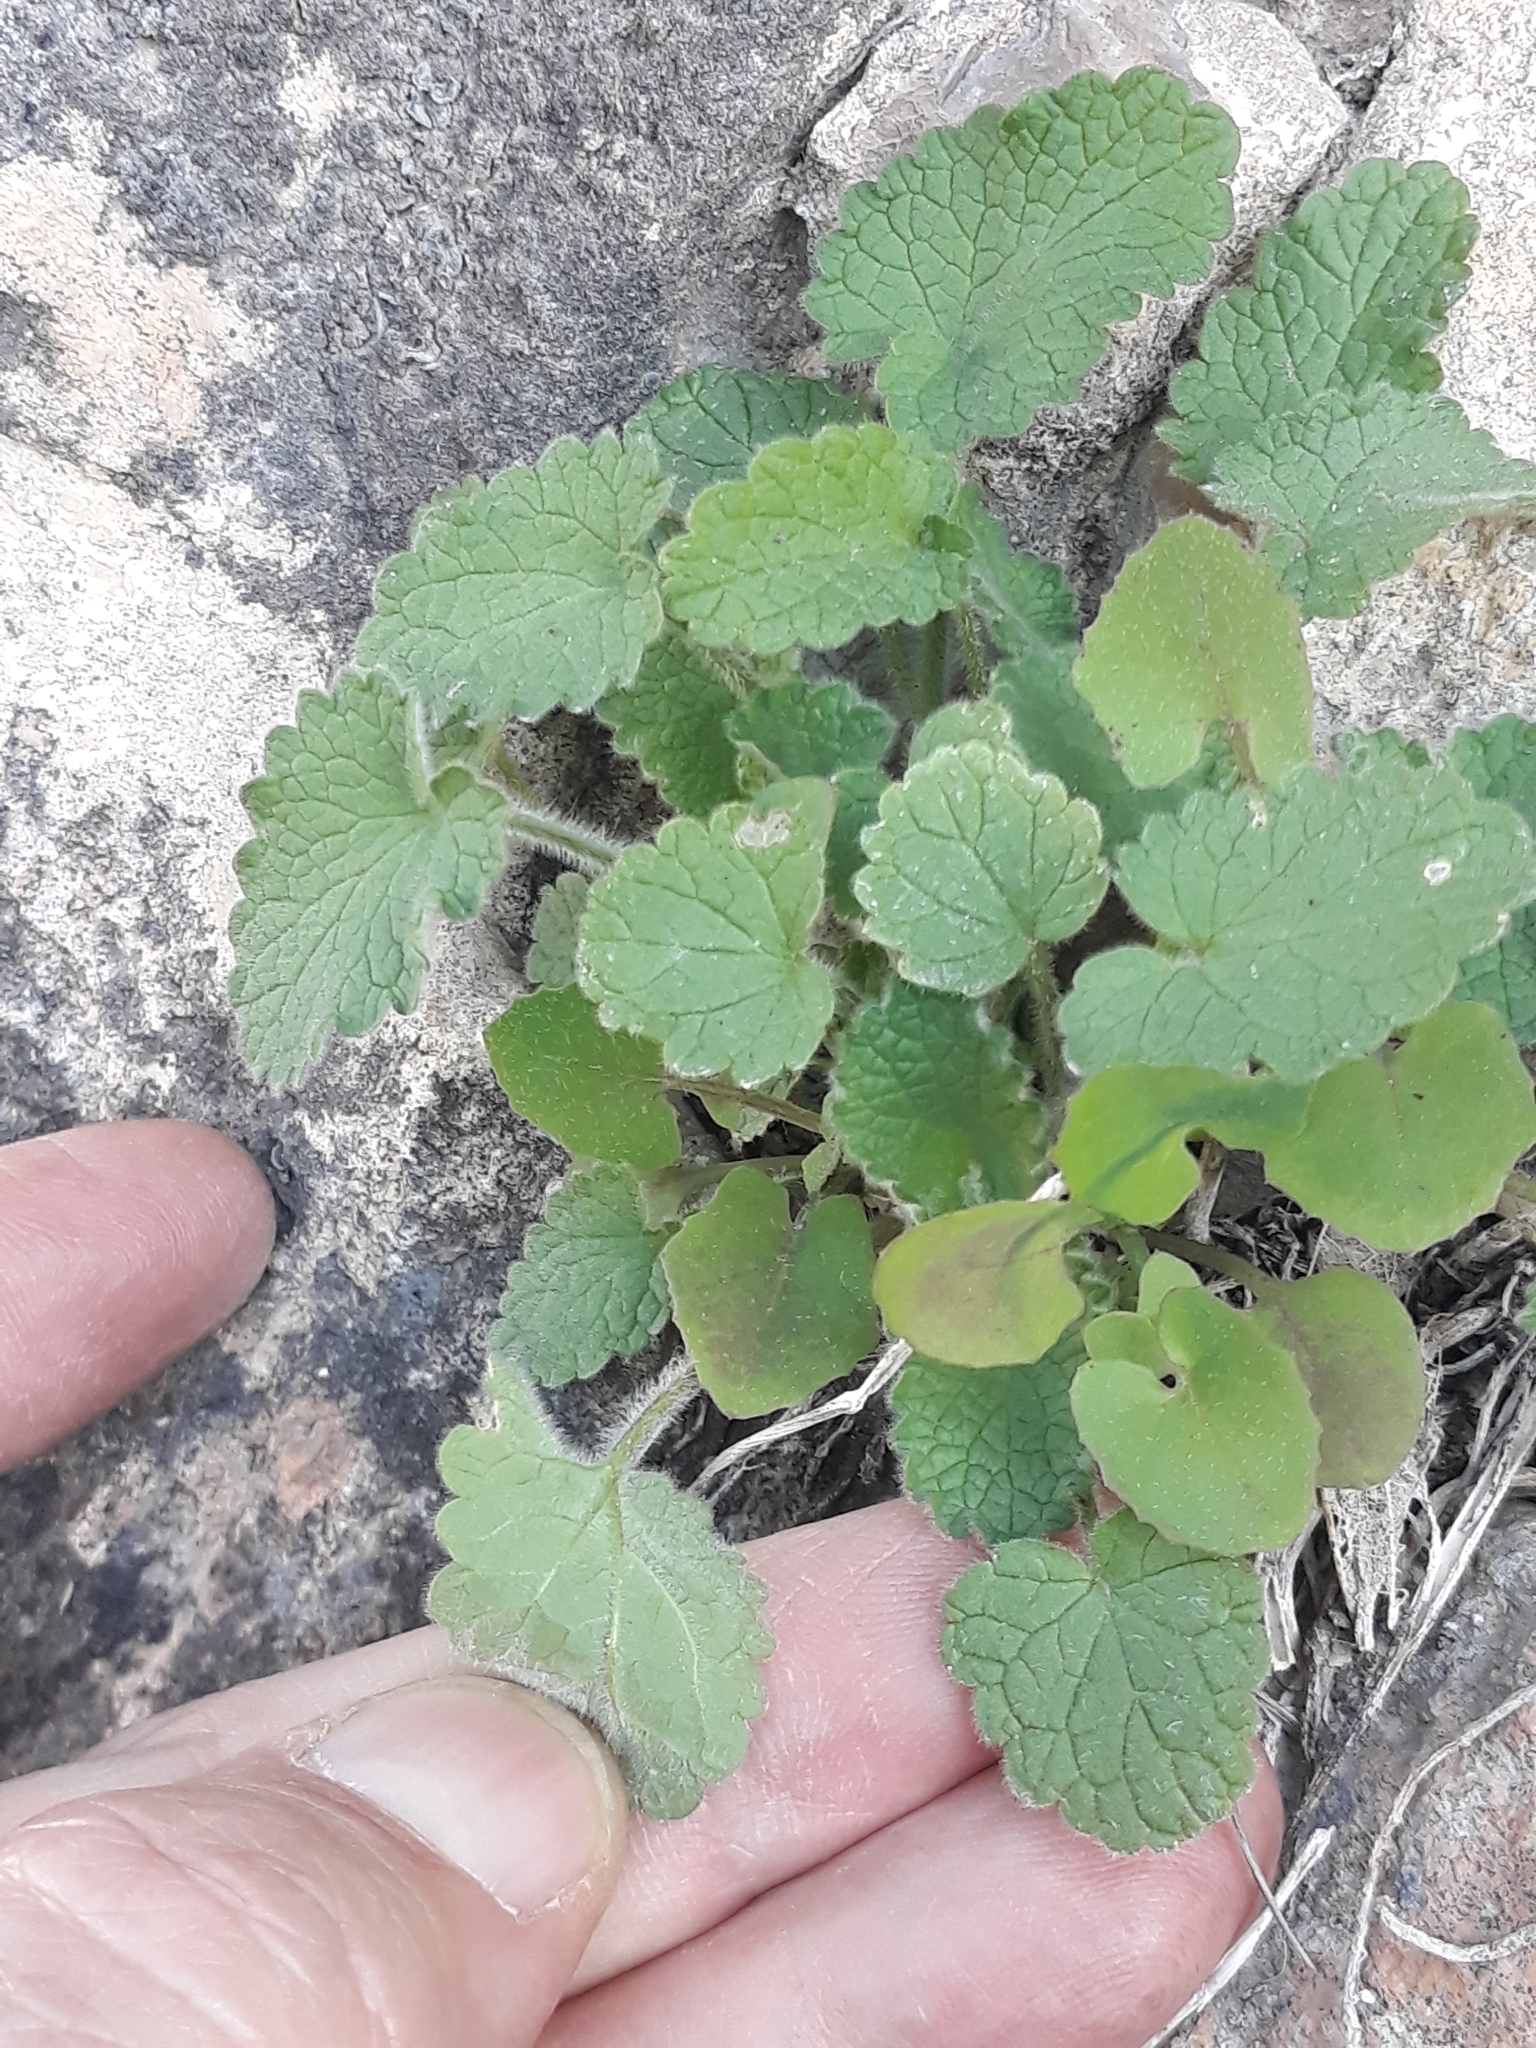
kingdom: Plantae
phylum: Tracheophyta
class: Magnoliopsida
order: Lamiales
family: Lamiaceae
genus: Stachys
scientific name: Stachys circinata
